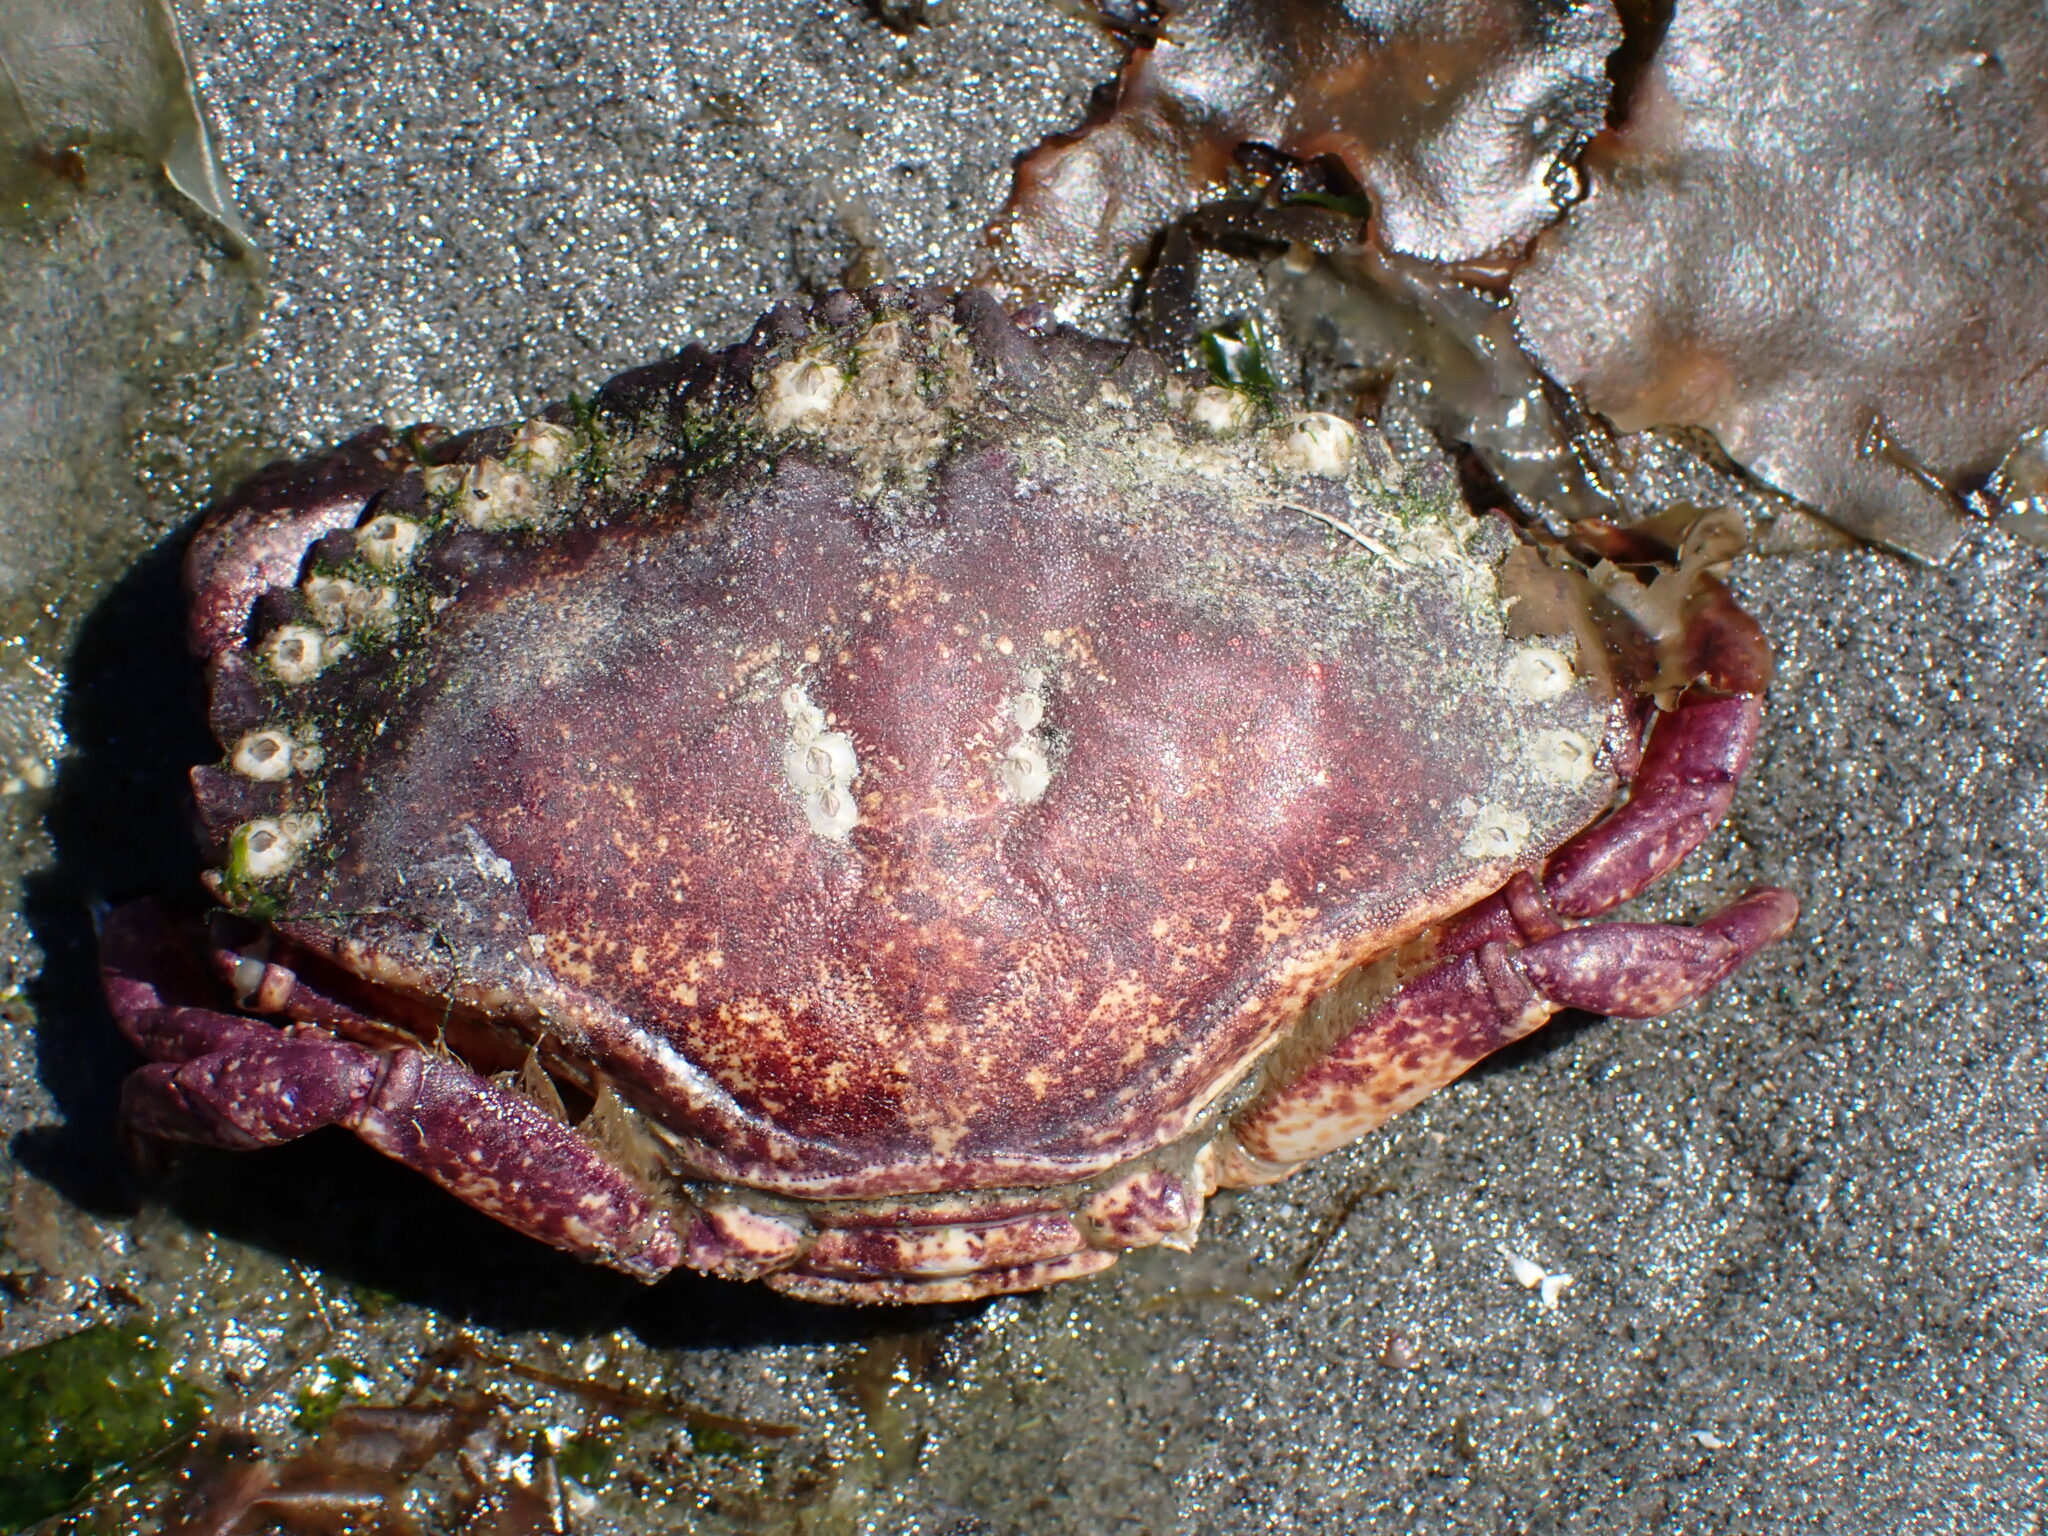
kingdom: Animalia
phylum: Arthropoda
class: Malacostraca
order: Decapoda
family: Cancridae
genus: Cancer
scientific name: Cancer productus
